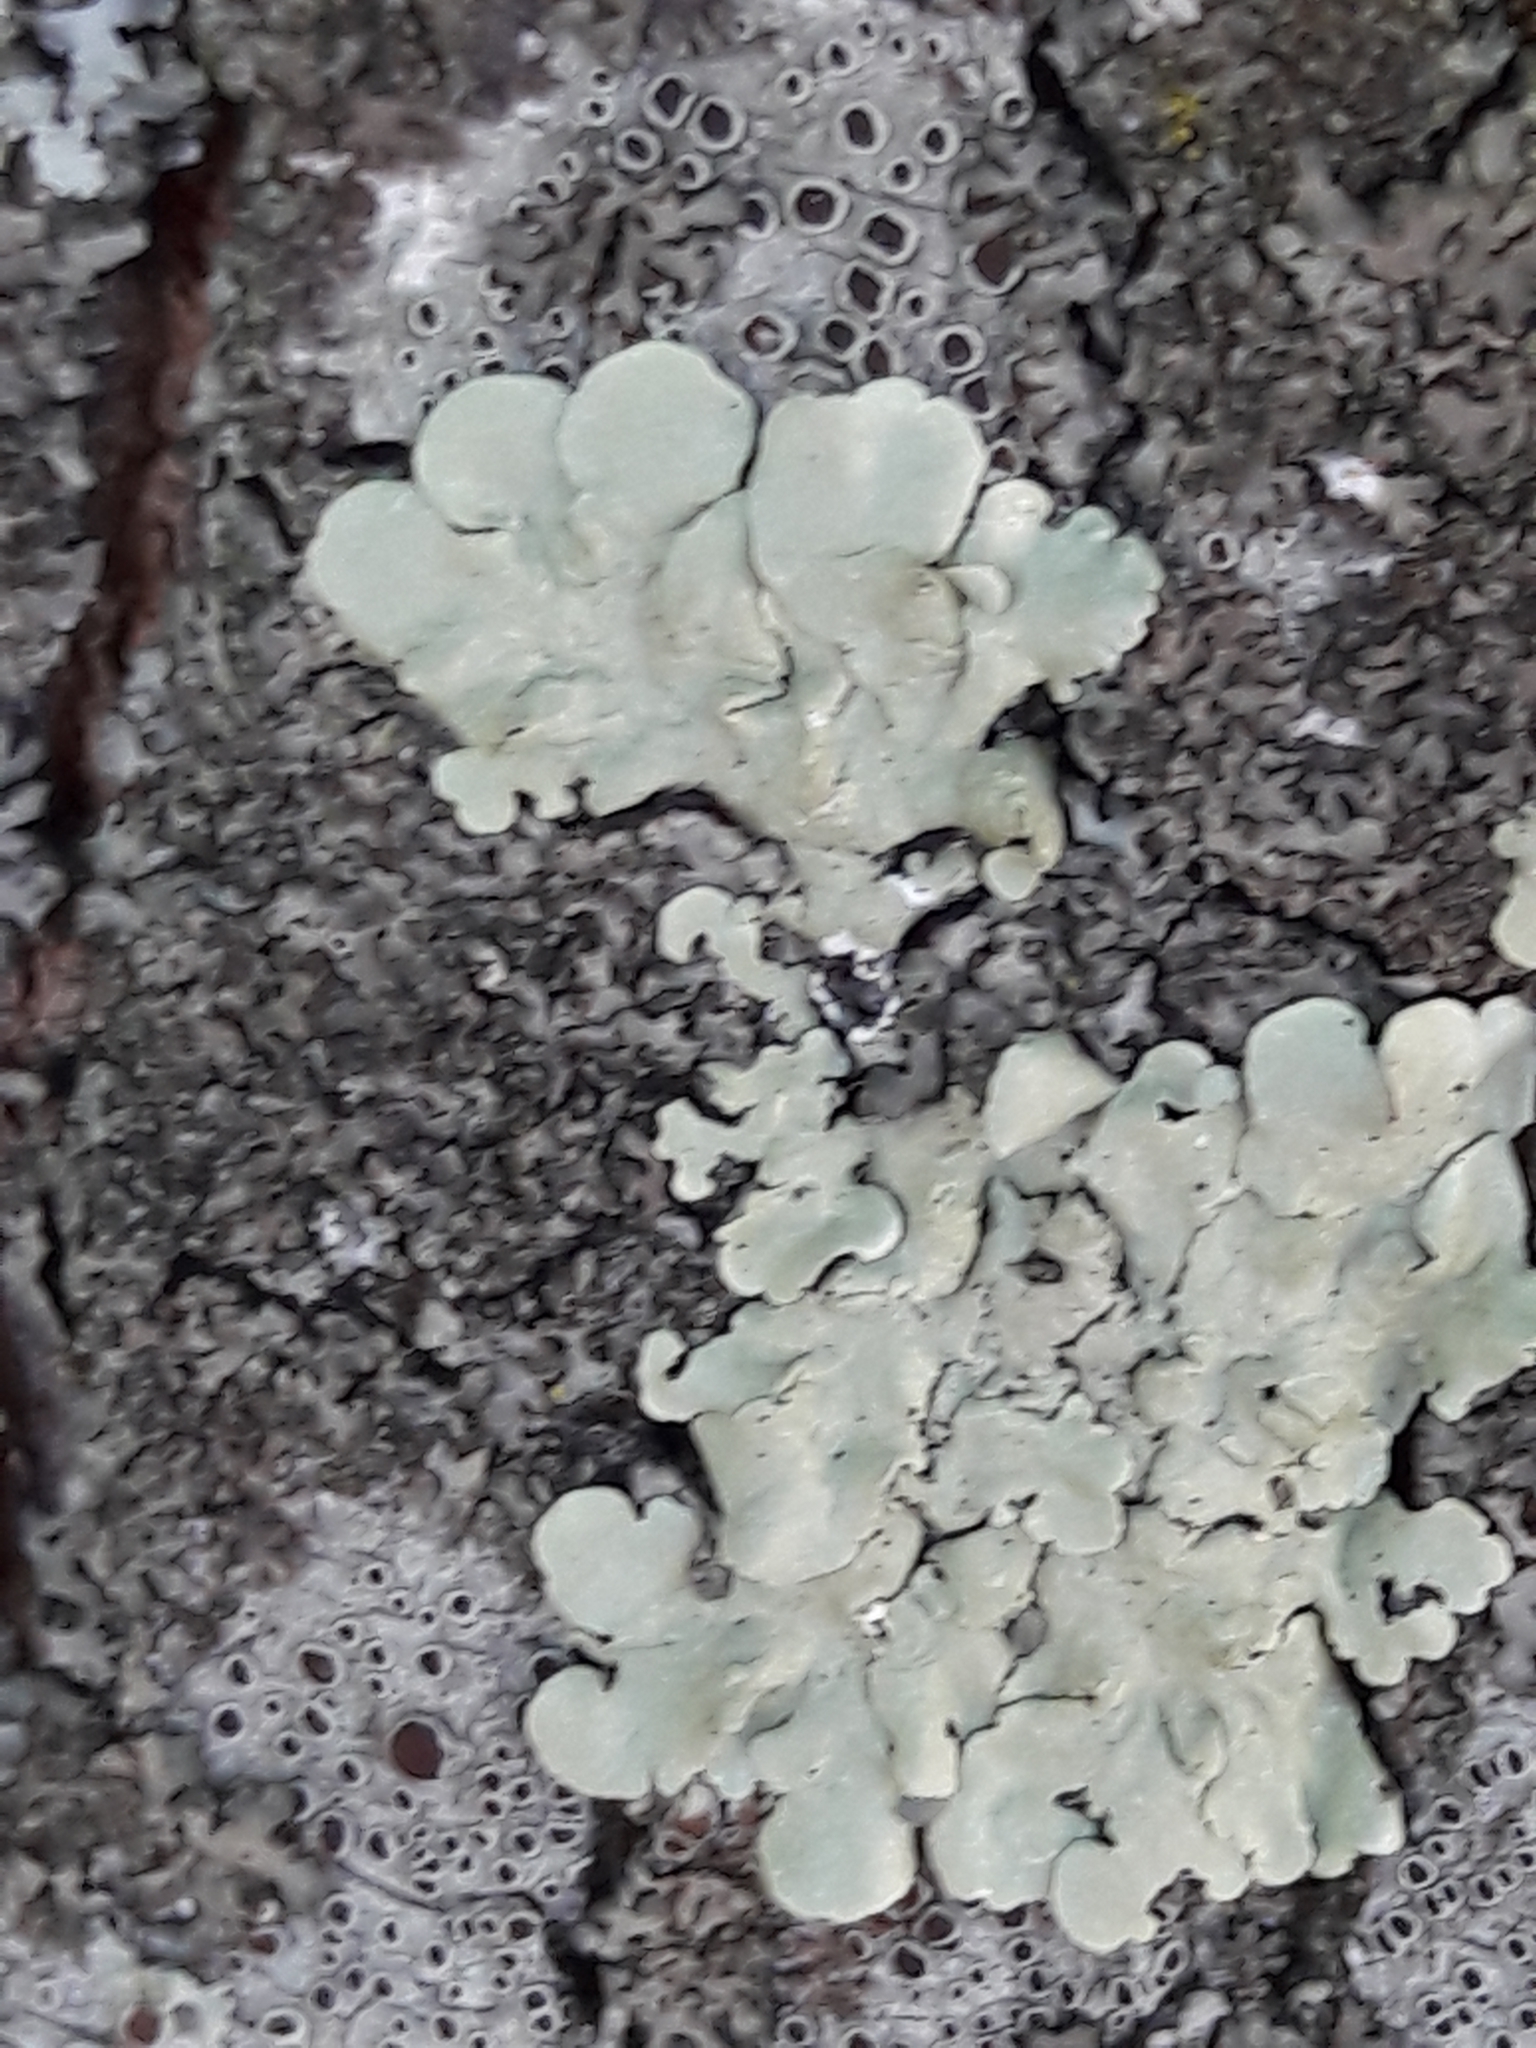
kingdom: Fungi
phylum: Ascomycota
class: Lecanoromycetes
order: Lecanorales
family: Parmeliaceae
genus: Flavoparmelia
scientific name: Flavoparmelia caperata
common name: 40-mile per hour lichen
